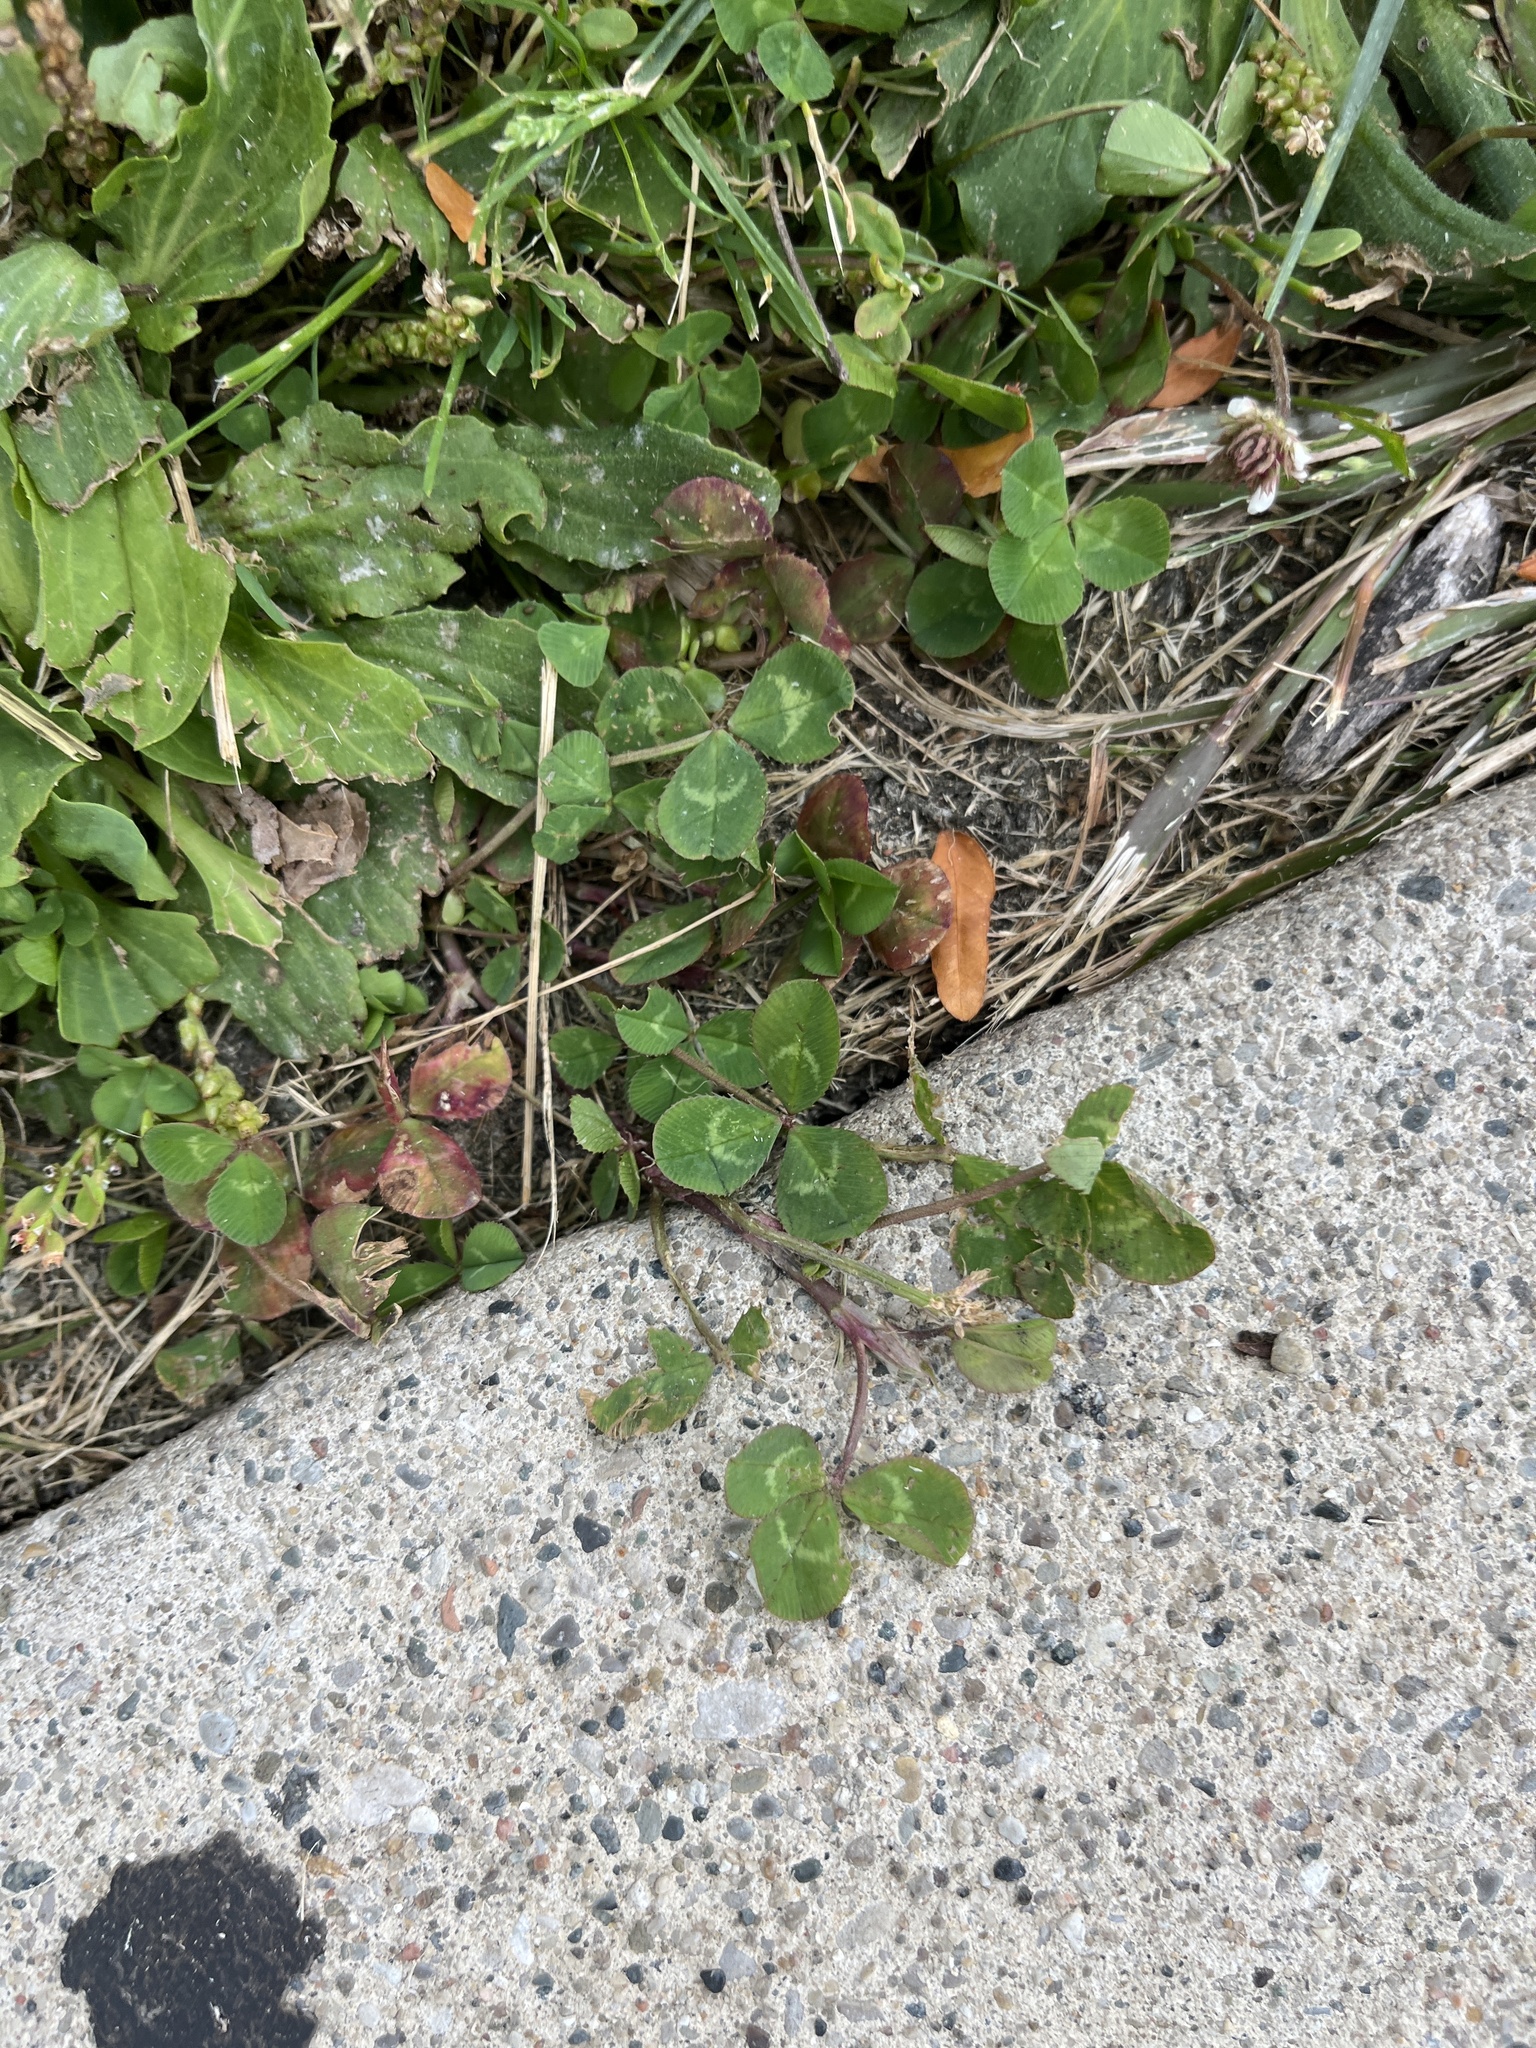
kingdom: Plantae
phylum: Tracheophyta
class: Magnoliopsida
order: Fabales
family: Fabaceae
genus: Trifolium
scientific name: Trifolium repens
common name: White clover
